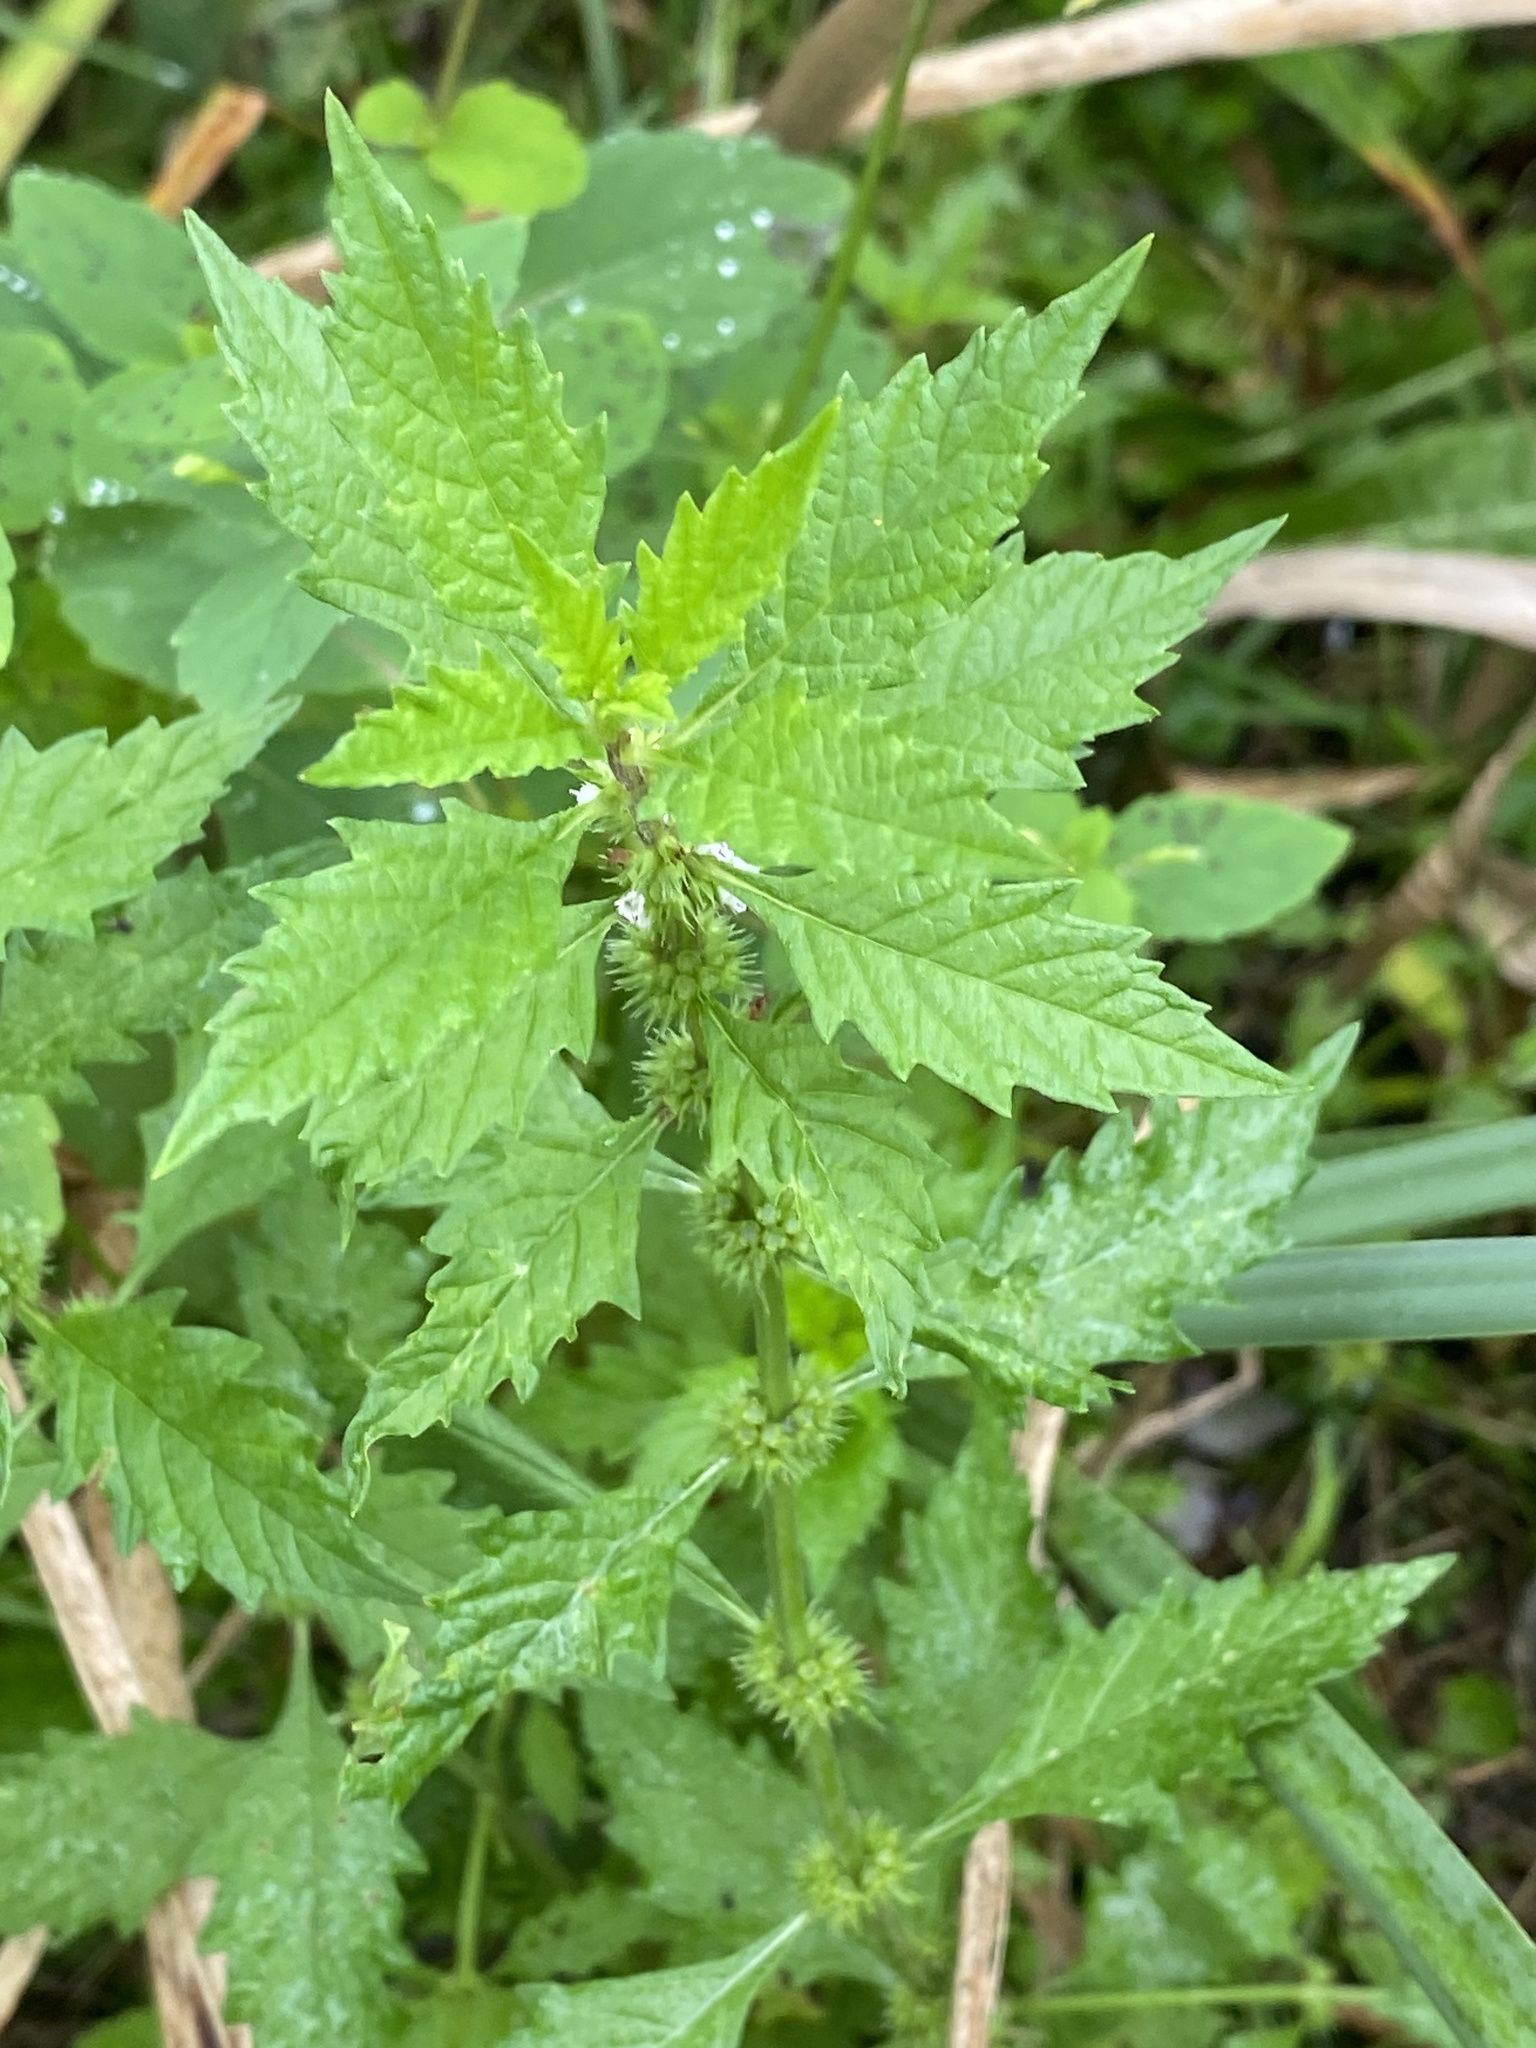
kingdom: Plantae
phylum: Tracheophyta
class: Magnoliopsida
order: Lamiales
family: Lamiaceae
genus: Lycopus
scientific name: Lycopus europaeus
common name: European bugleweed
